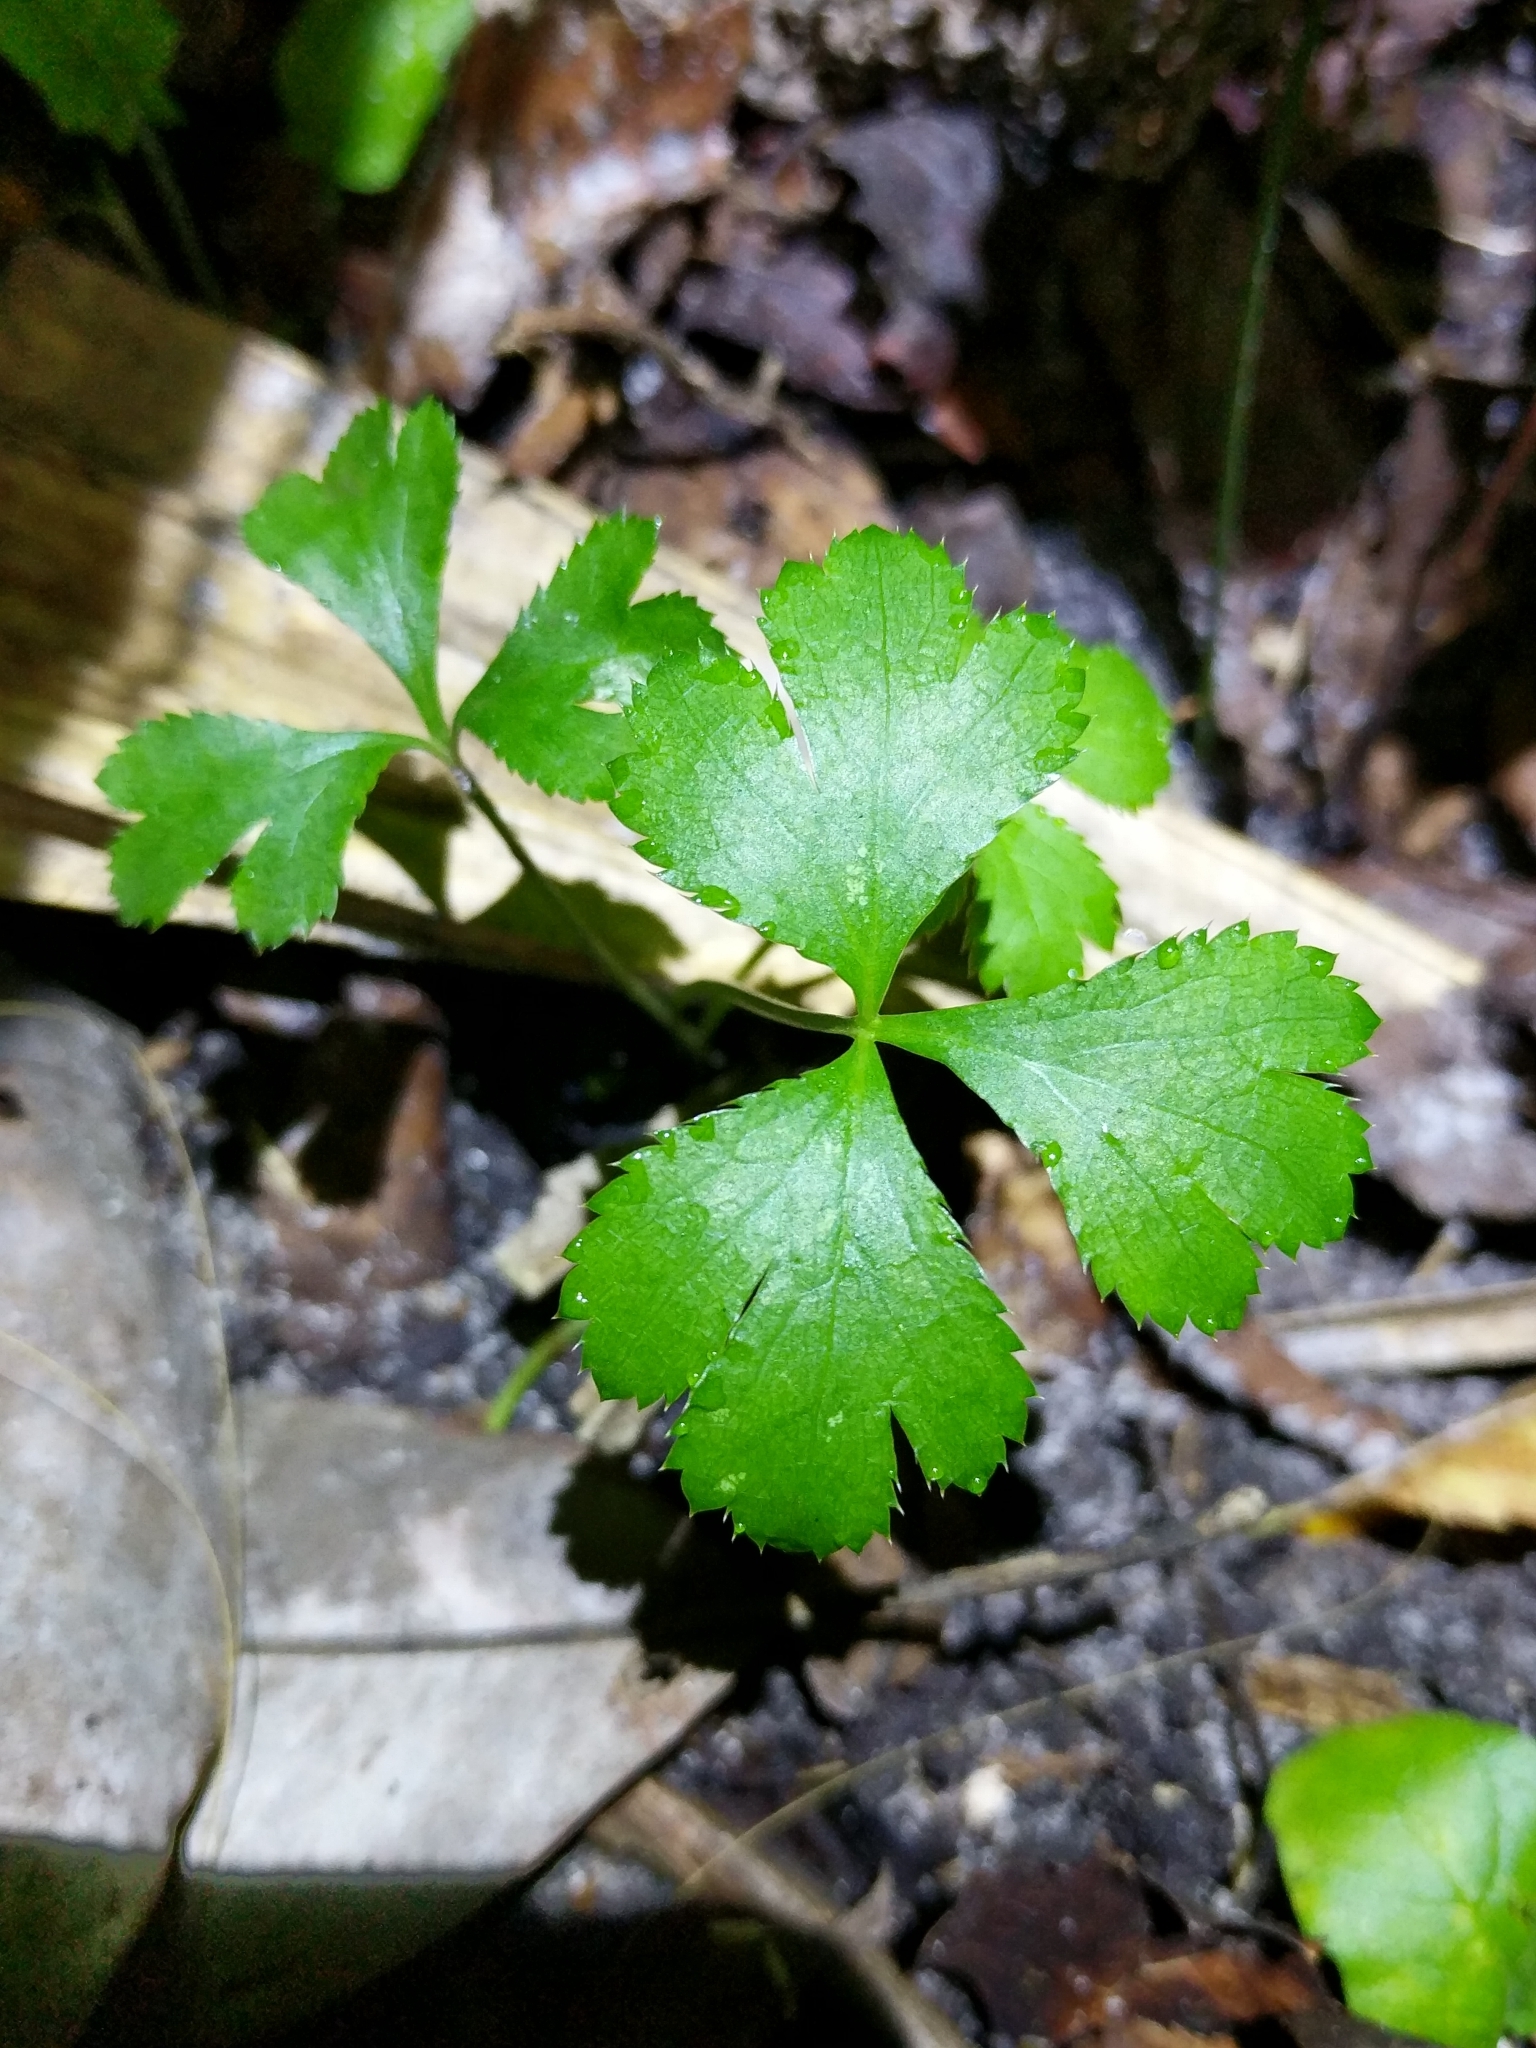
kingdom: Plantae
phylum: Tracheophyta
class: Magnoliopsida
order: Apiales
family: Apiaceae
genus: Sanicula
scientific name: Sanicula canadensis
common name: Canada sanicle
